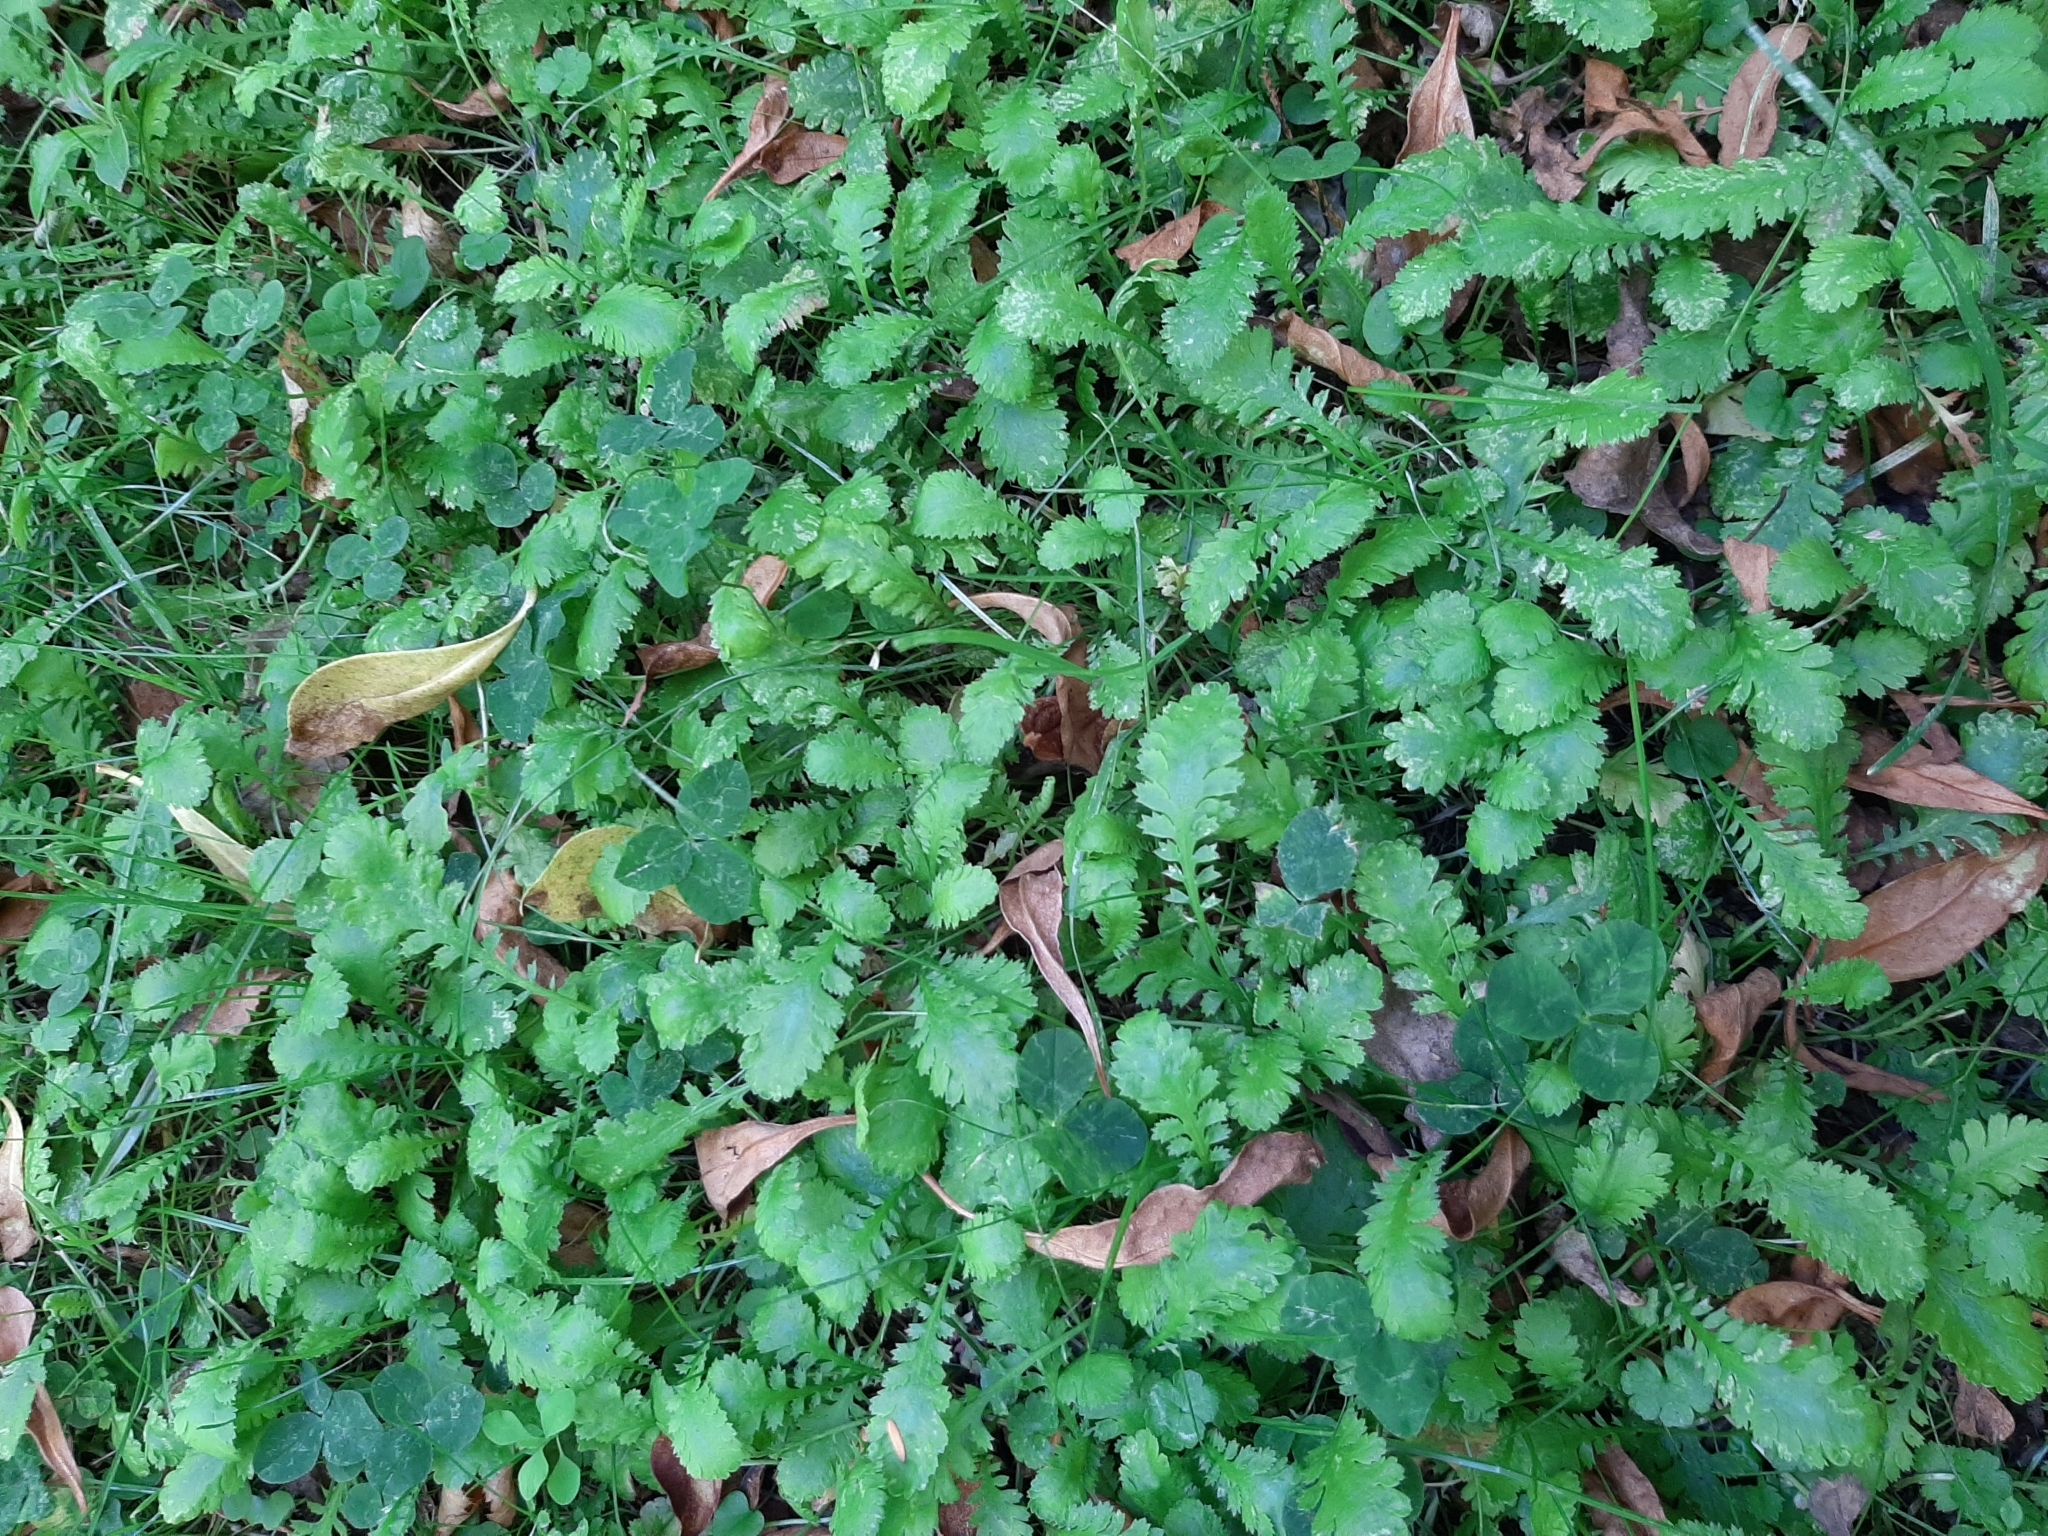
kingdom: Plantae
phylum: Tracheophyta
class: Magnoliopsida
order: Asterales
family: Asteraceae
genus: Leptinella
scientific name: Leptinella dioica
